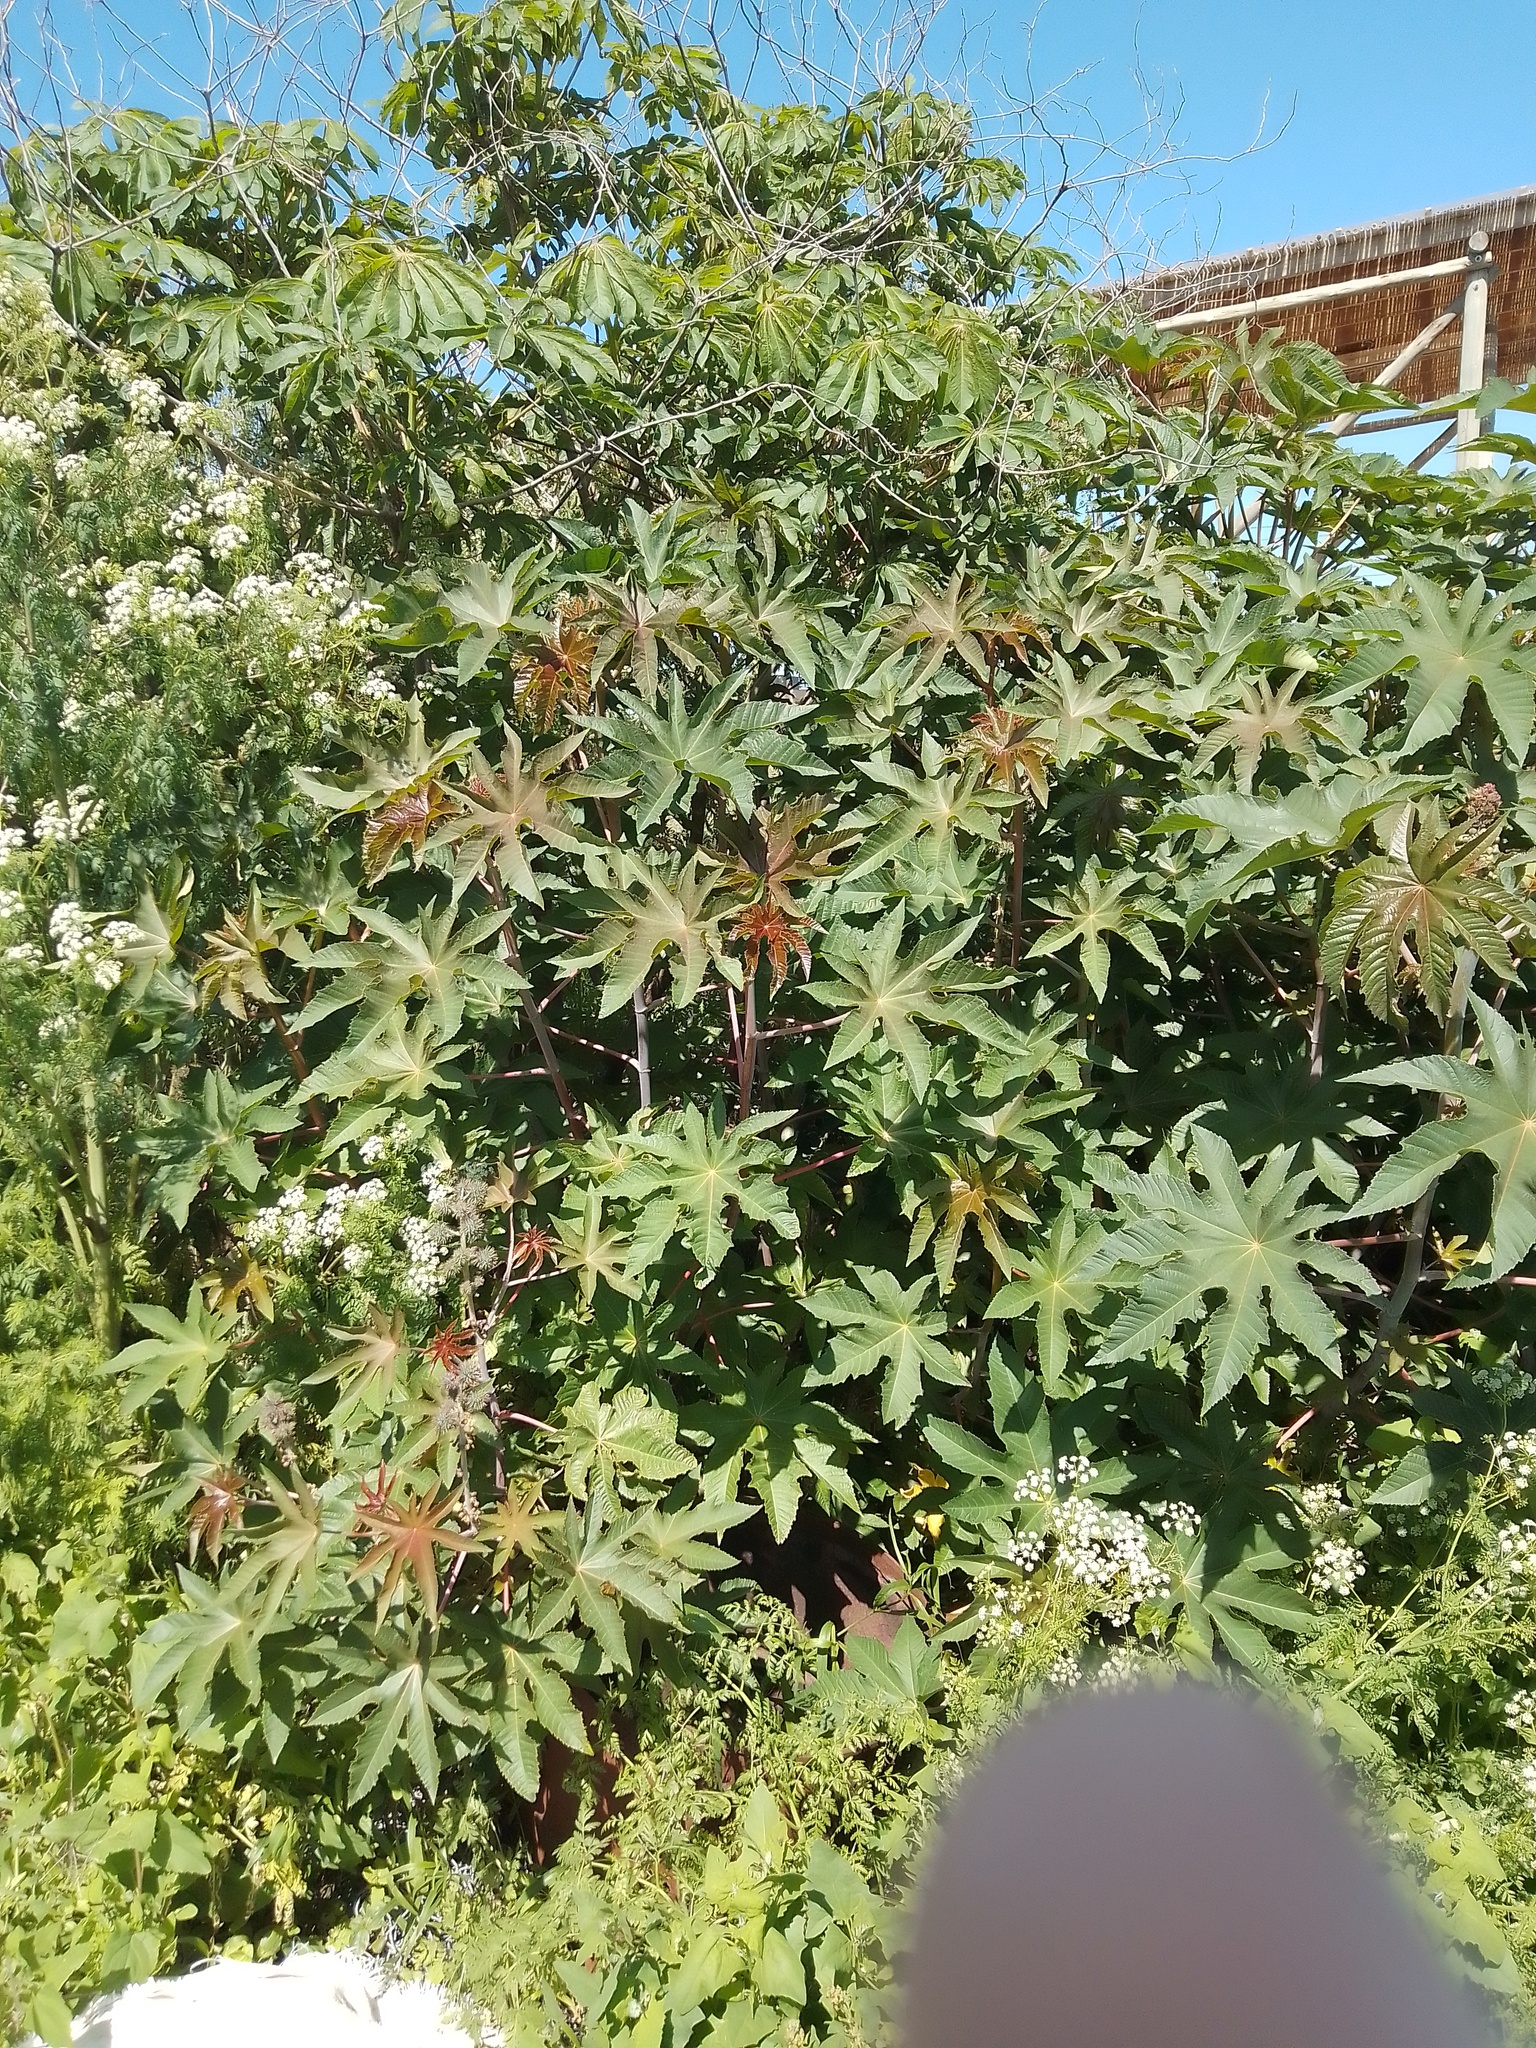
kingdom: Plantae
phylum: Tracheophyta
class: Magnoliopsida
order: Malpighiales
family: Euphorbiaceae
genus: Ricinus
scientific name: Ricinus communis
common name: Castor-oil-plant
